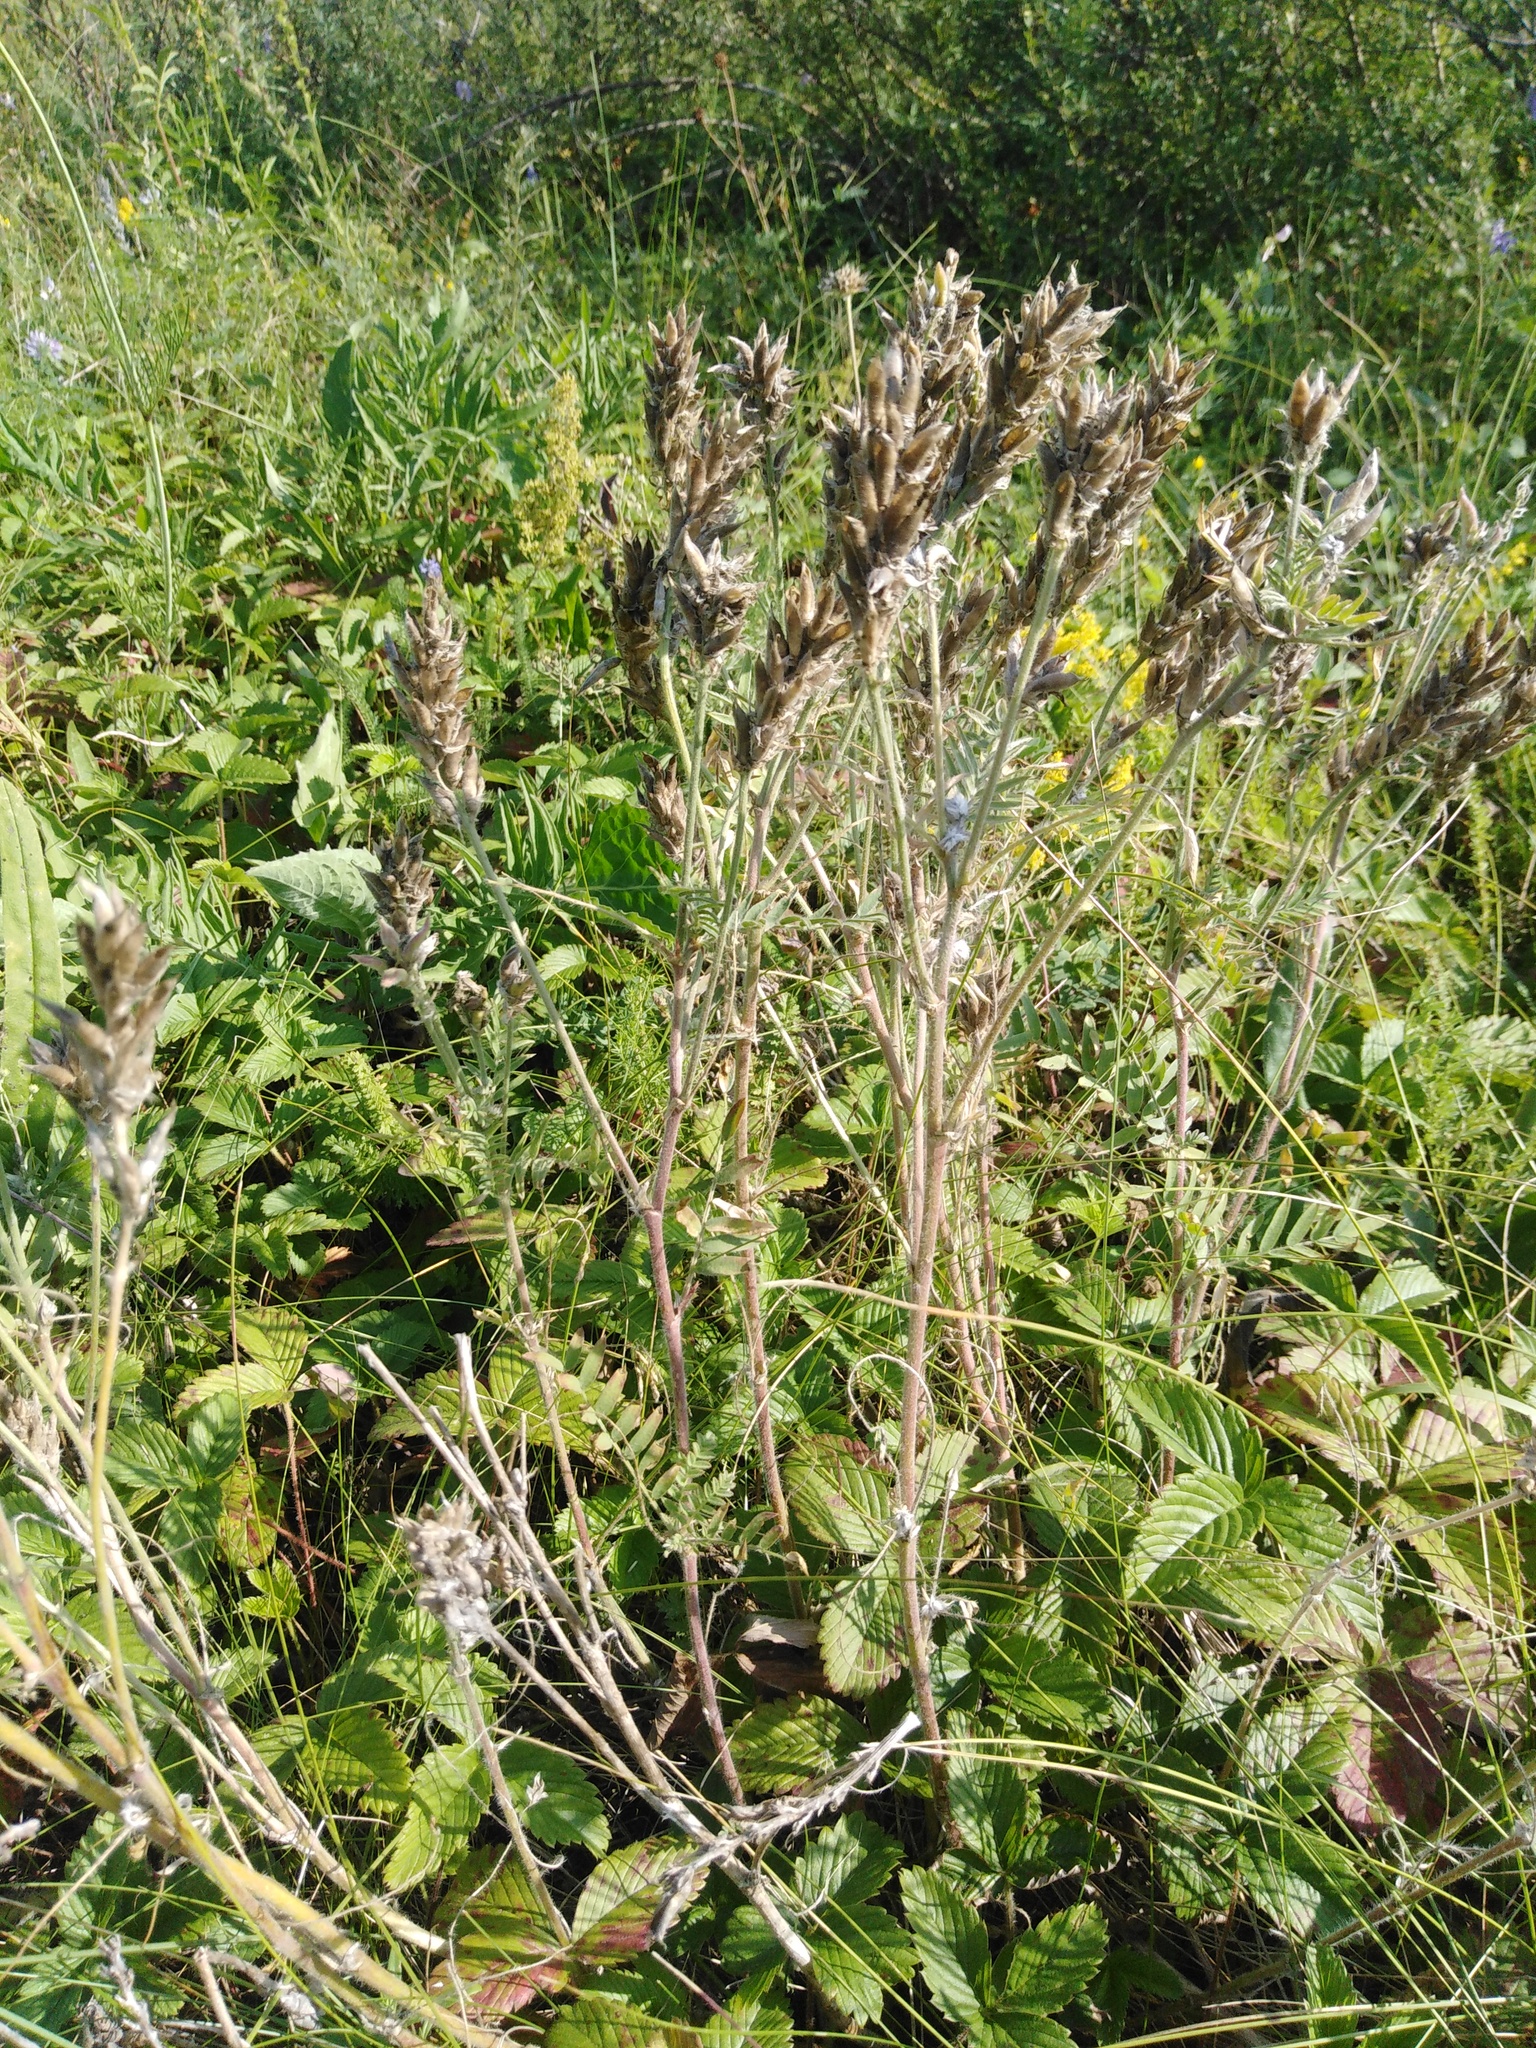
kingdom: Plantae
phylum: Tracheophyta
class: Magnoliopsida
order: Fabales
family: Fabaceae
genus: Oxytropis
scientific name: Oxytropis pilosa
